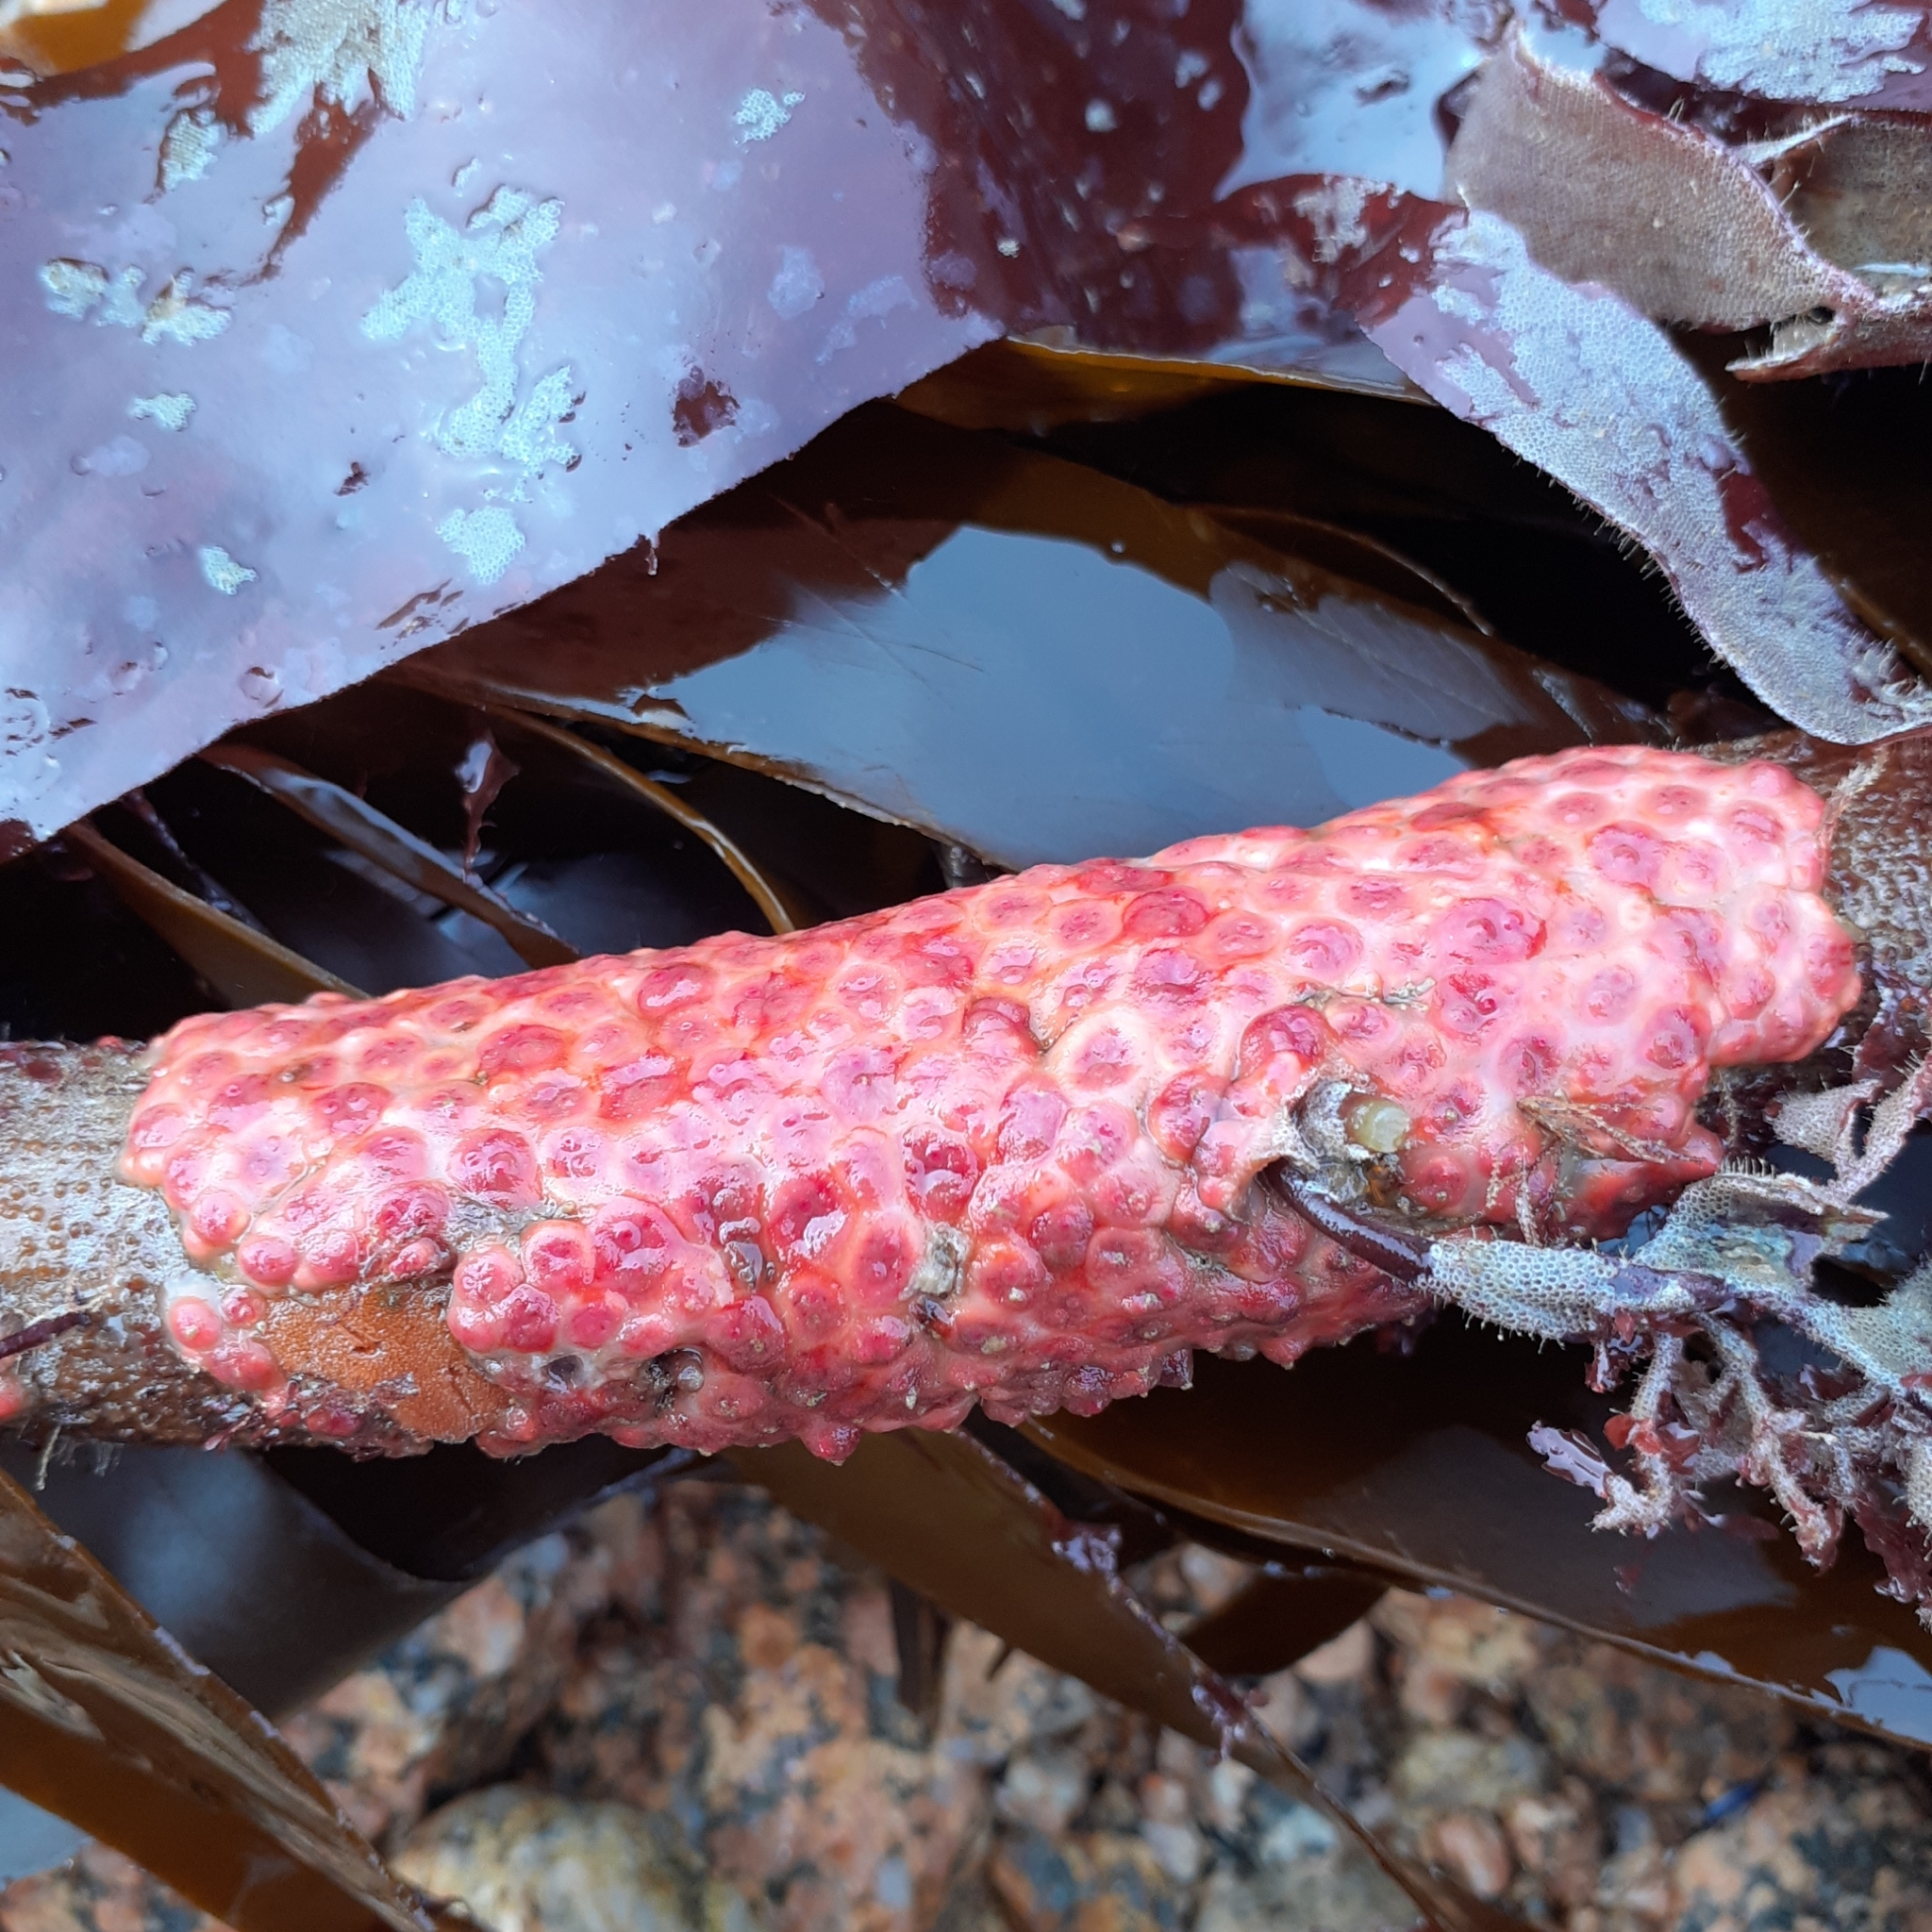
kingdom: Animalia
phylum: Chordata
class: Ascidiacea
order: Stolidobranchia
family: Styelidae
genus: Distomus
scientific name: Distomus variolosus
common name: Lesser gooseberry sea squirt
